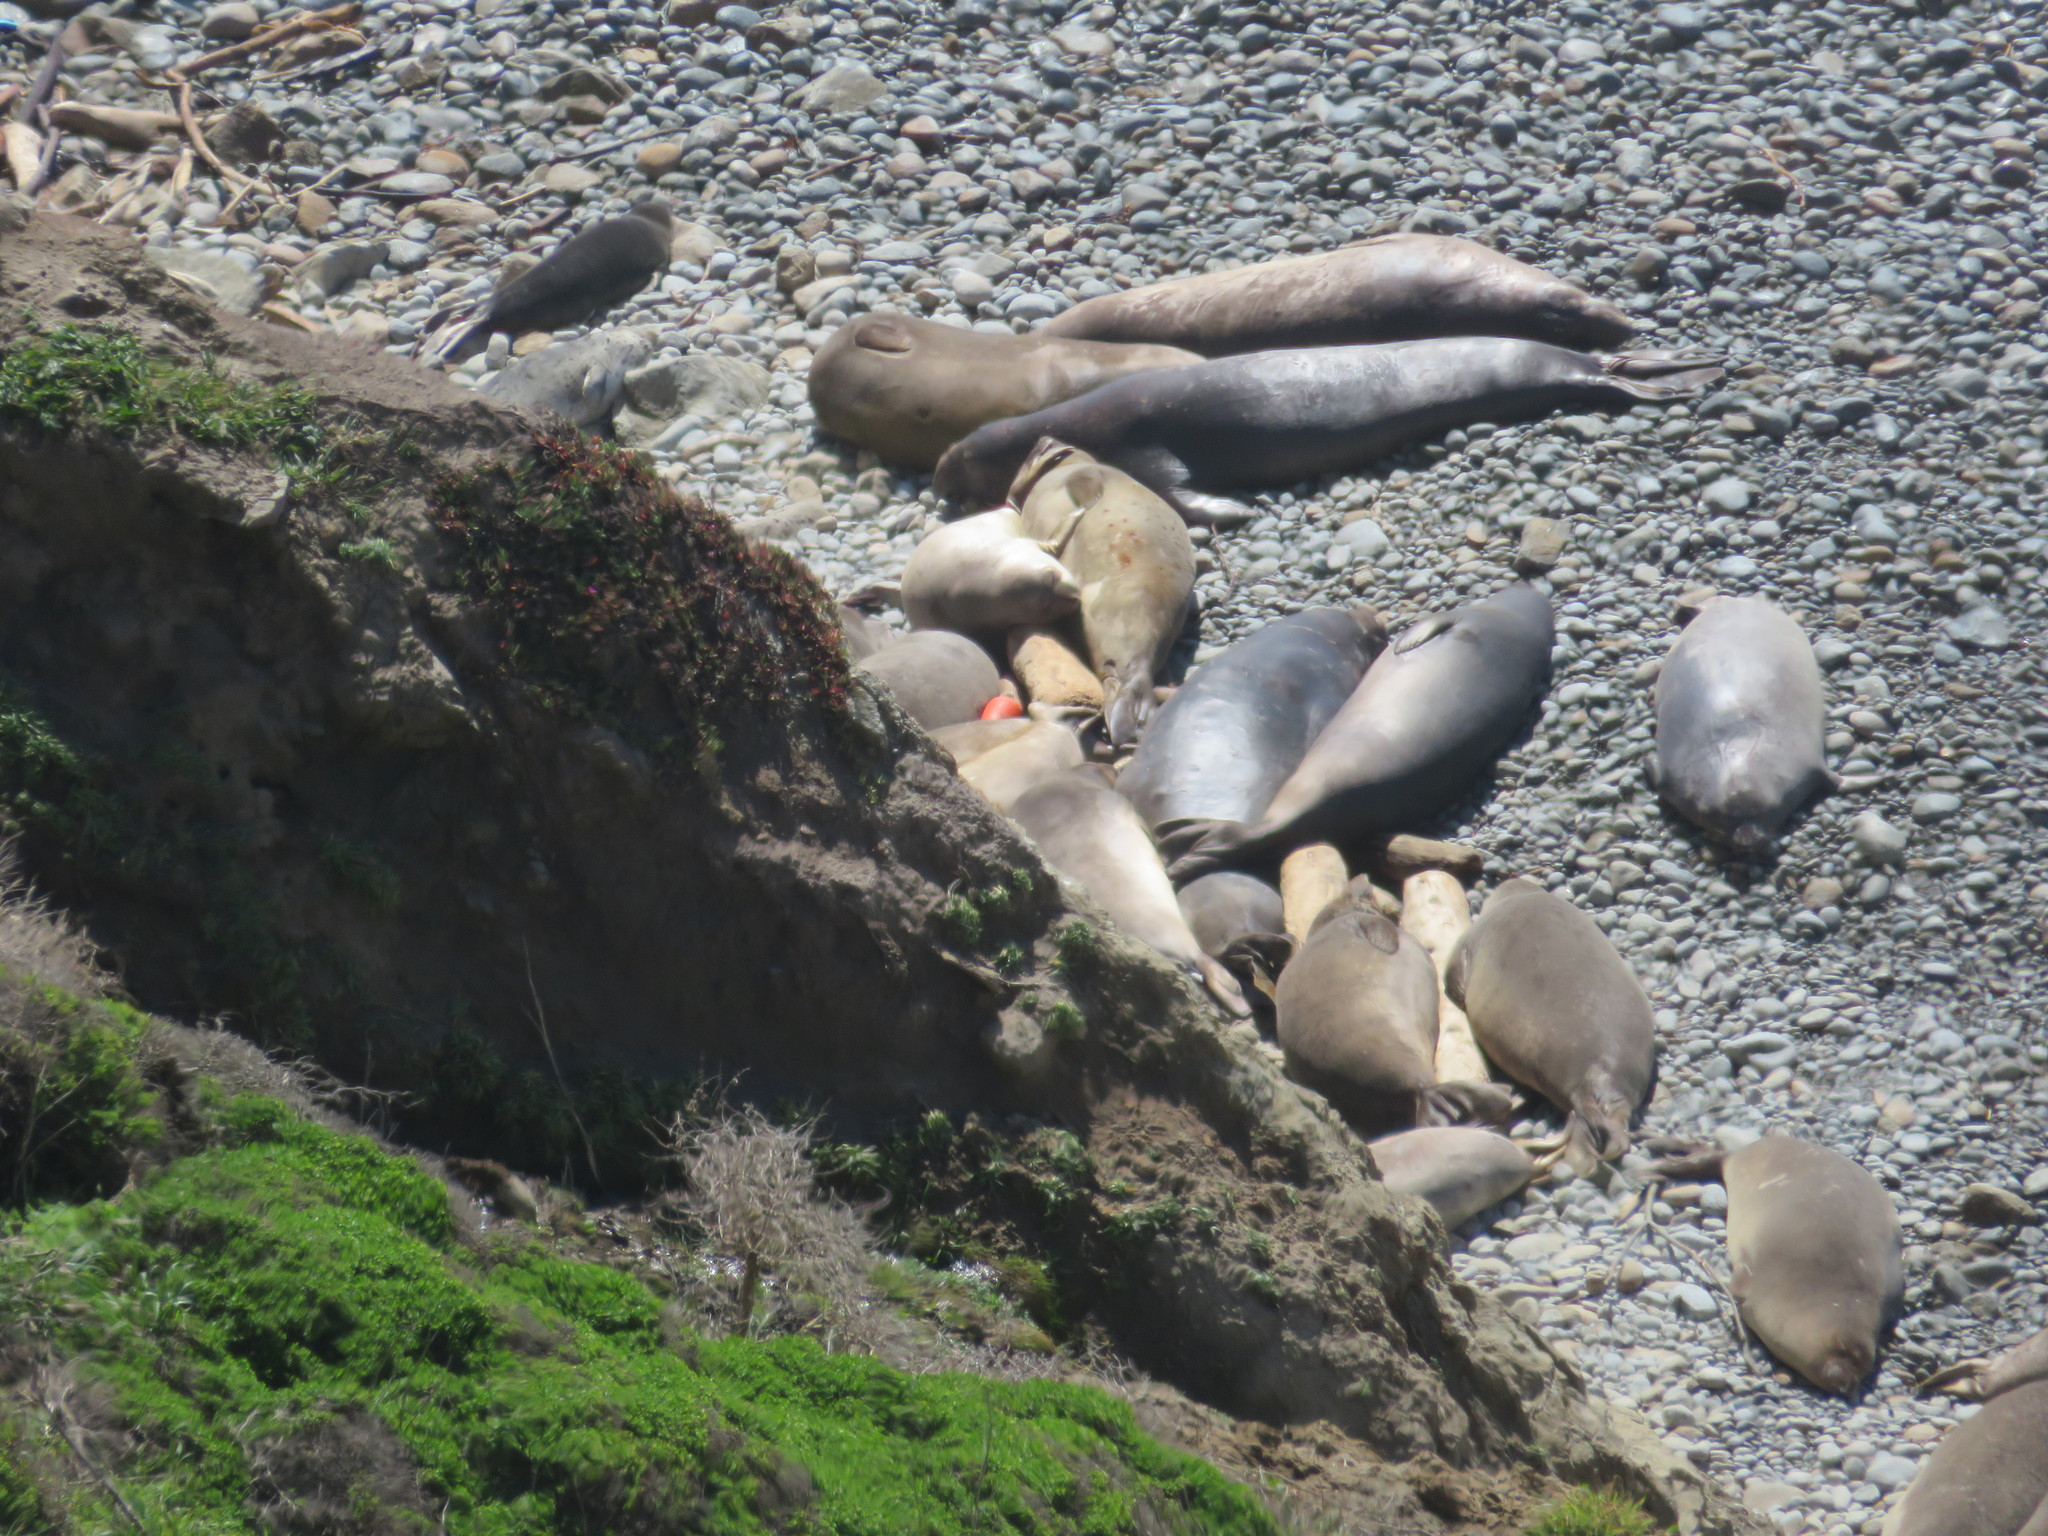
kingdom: Animalia
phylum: Chordata
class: Mammalia
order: Carnivora
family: Phocidae
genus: Mirounga
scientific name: Mirounga angustirostris
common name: Northern elephant seal
